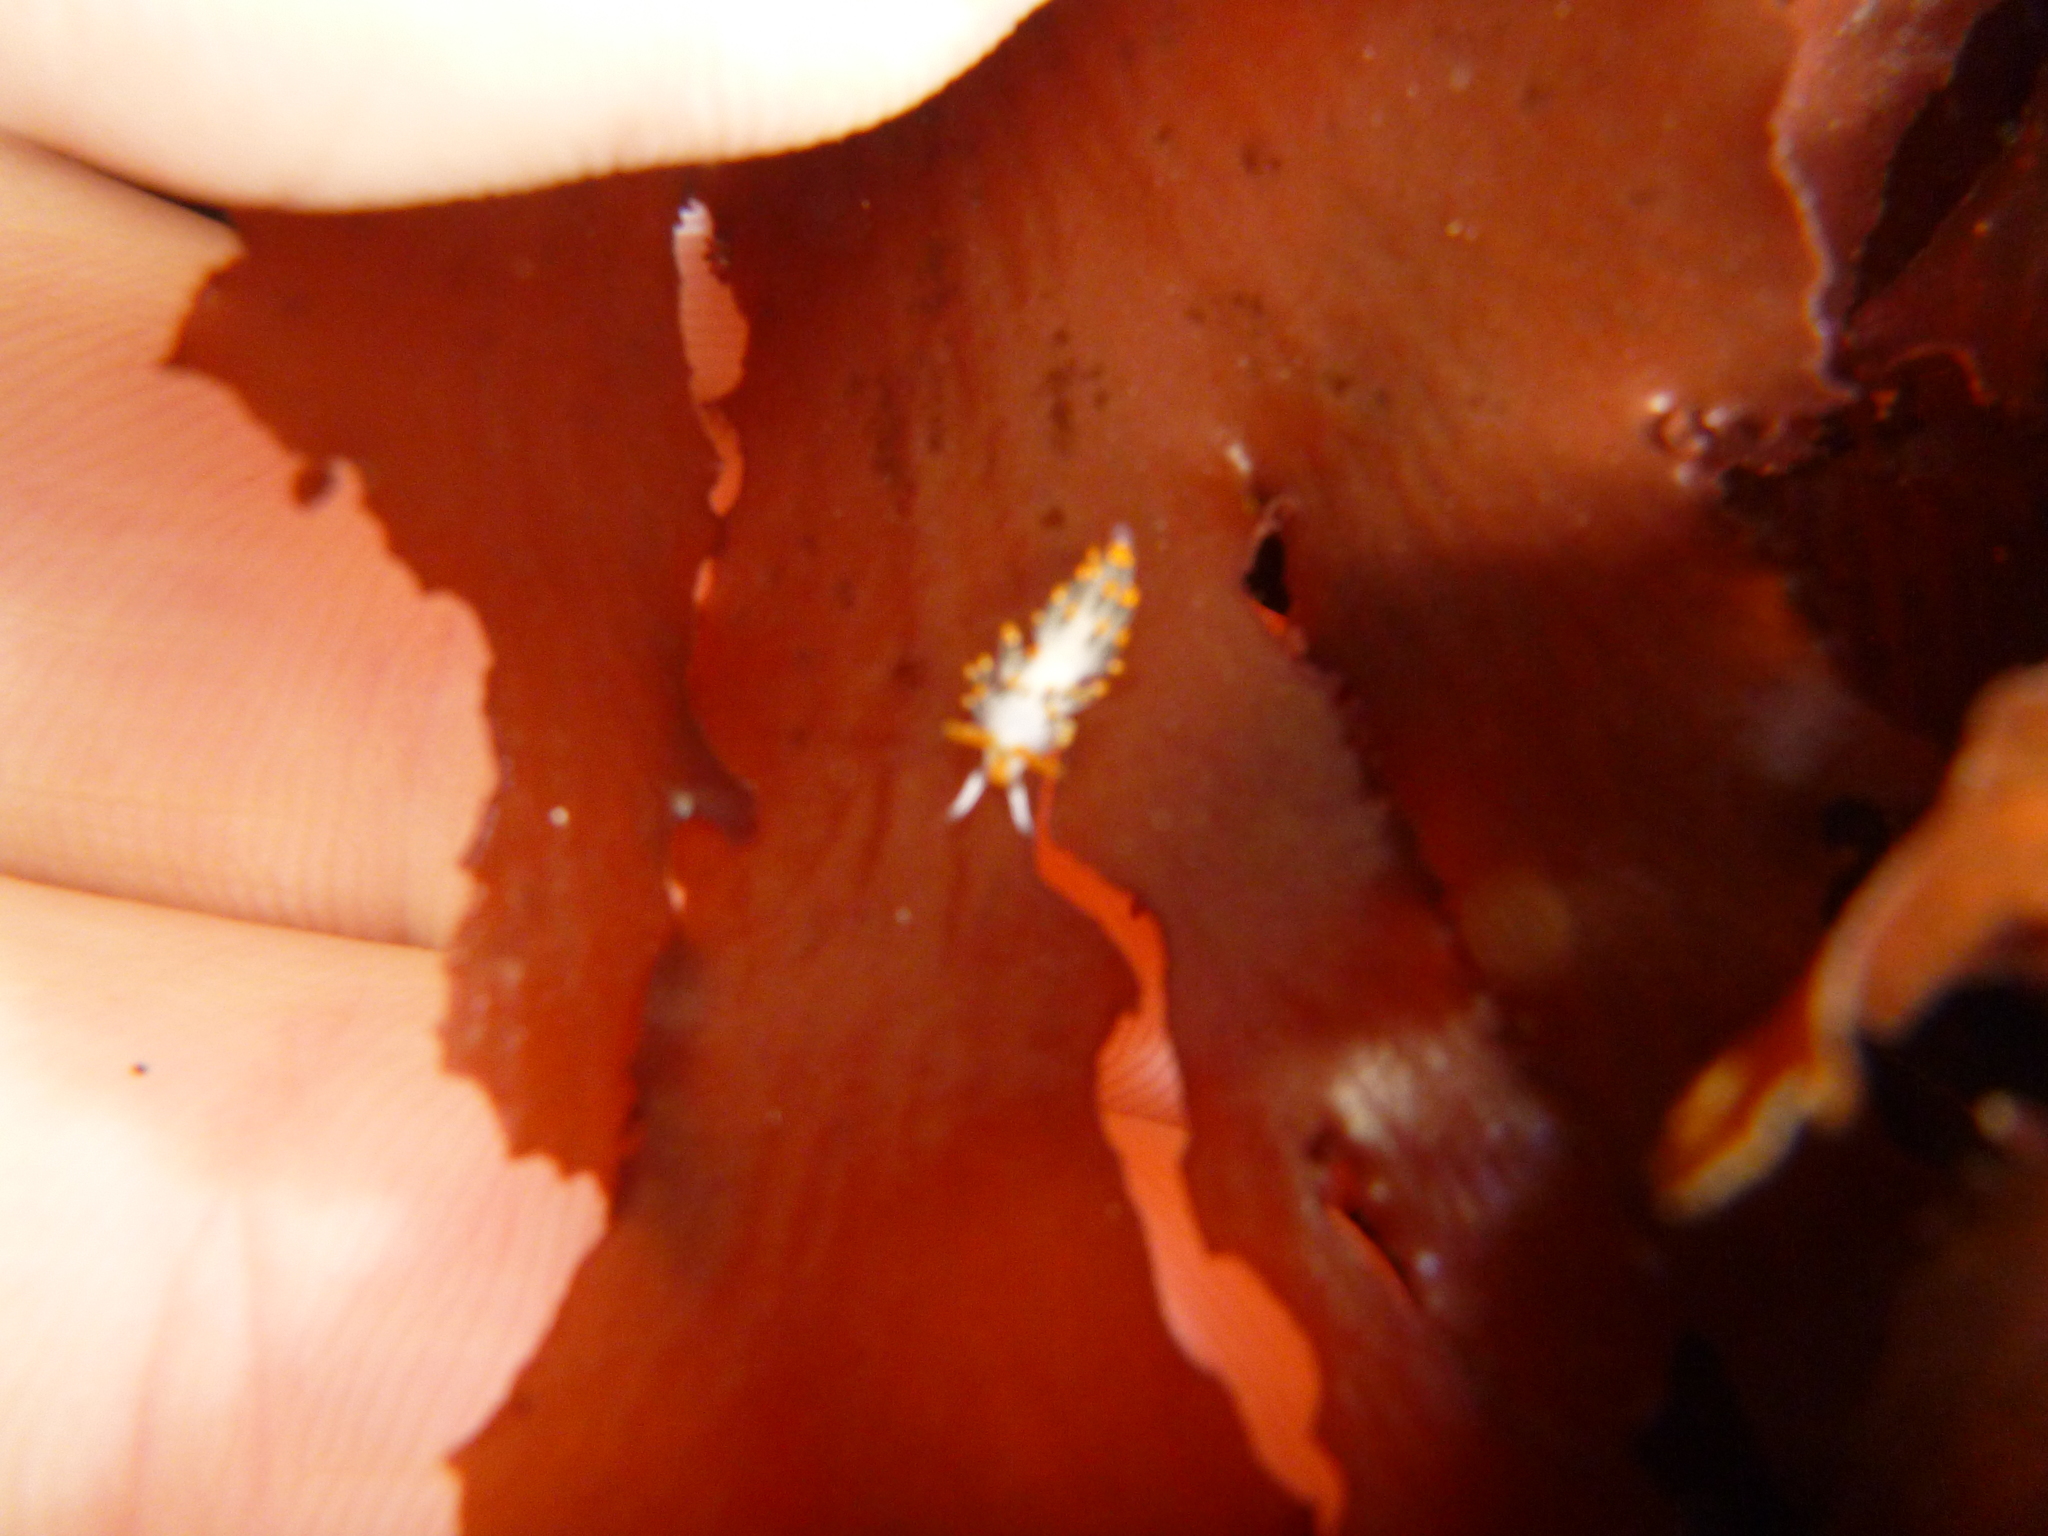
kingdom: Animalia
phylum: Mollusca
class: Gastropoda
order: Nudibranchia
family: Trinchesiidae
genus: Diaphoreolis
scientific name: Diaphoreolis lagunae
